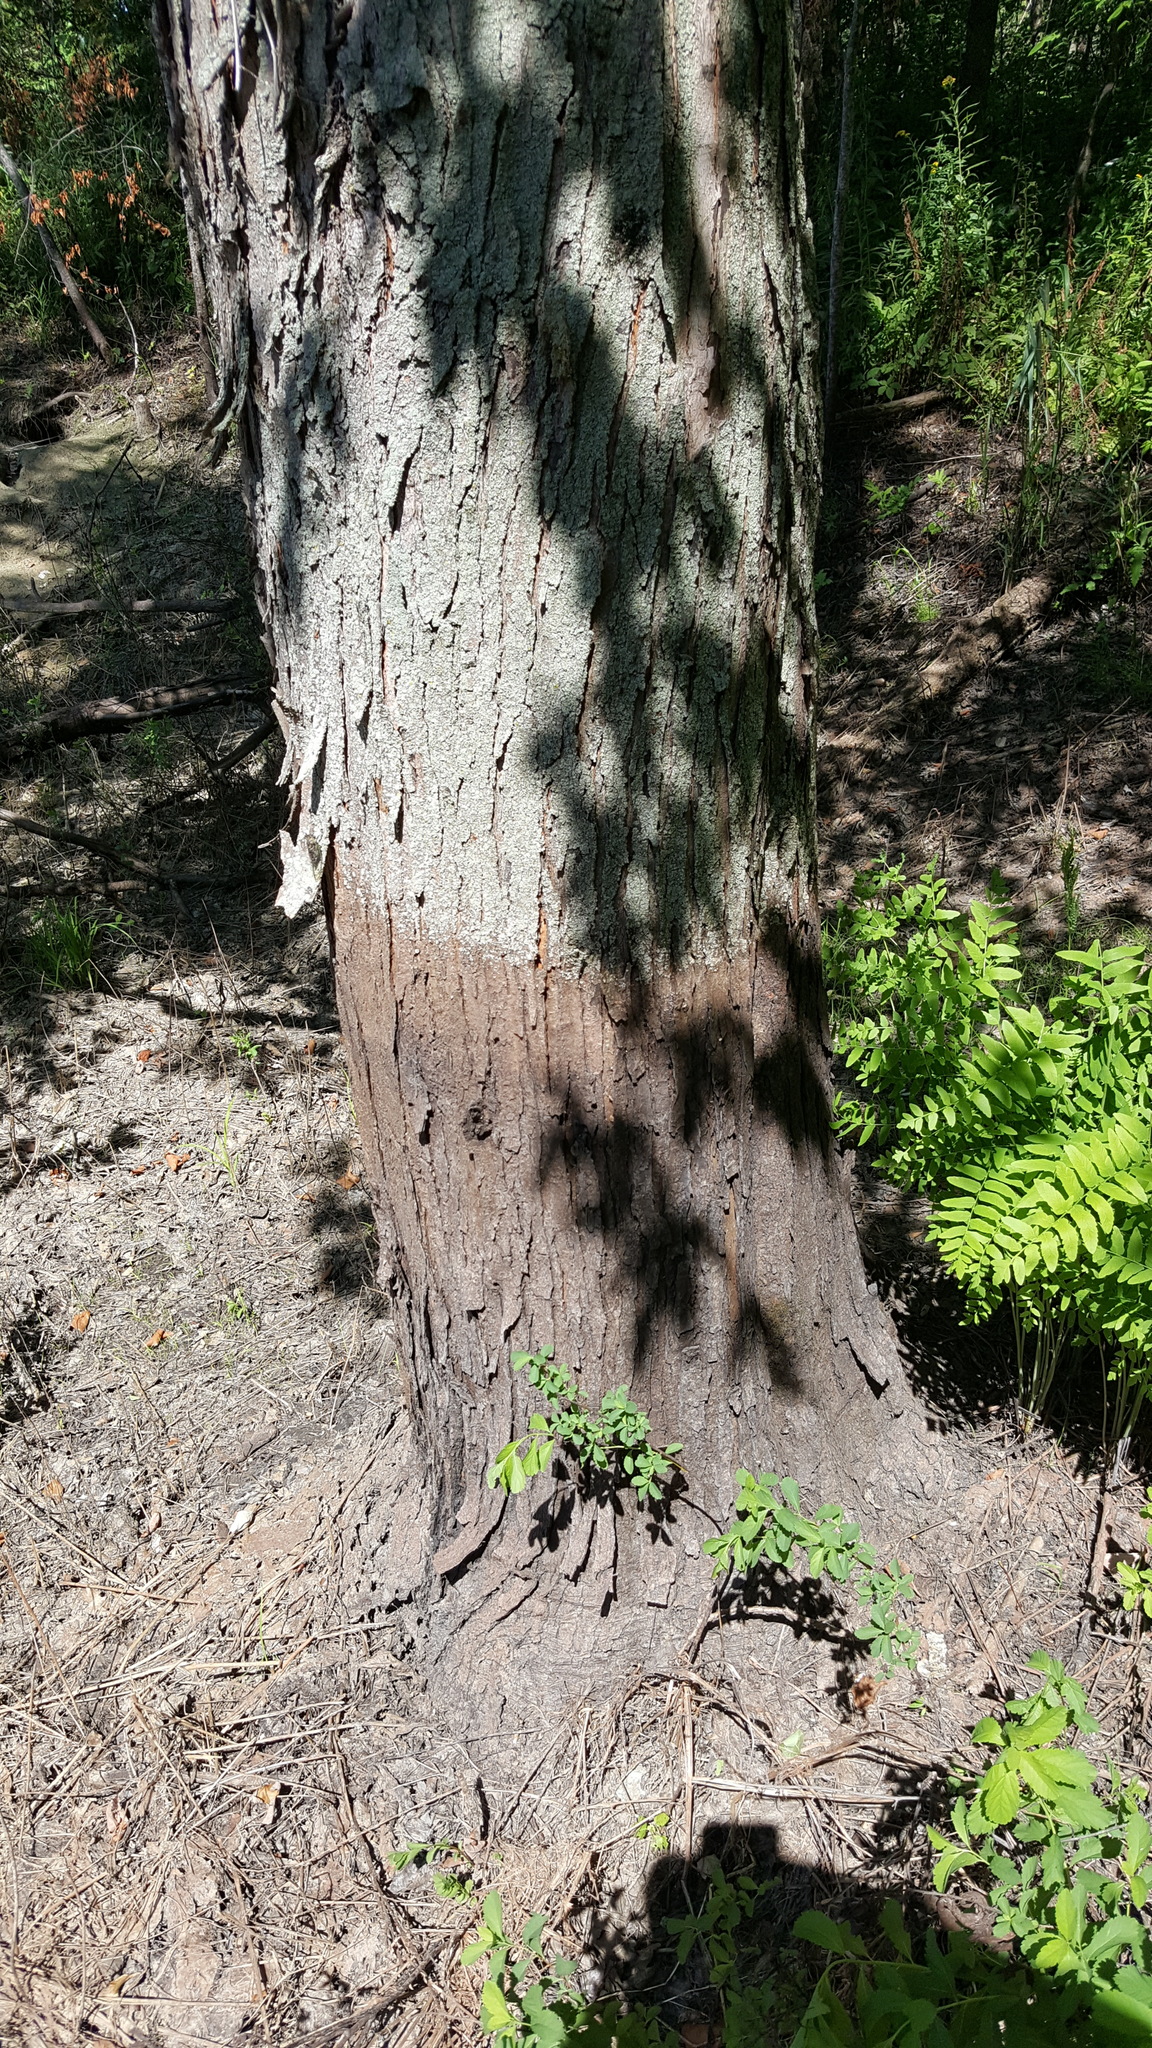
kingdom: Plantae
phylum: Tracheophyta
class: Polypodiopsida
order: Osmundales
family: Osmundaceae
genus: Osmunda
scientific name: Osmunda spectabilis
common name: American royal fern
